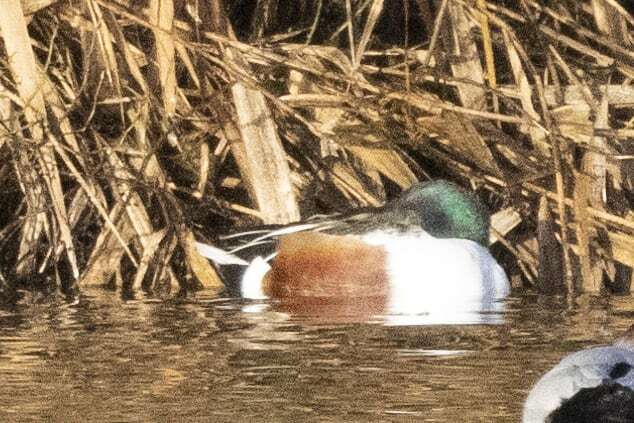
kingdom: Animalia
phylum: Chordata
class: Aves
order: Anseriformes
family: Anatidae
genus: Spatula
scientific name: Spatula clypeata
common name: Northern shoveler
